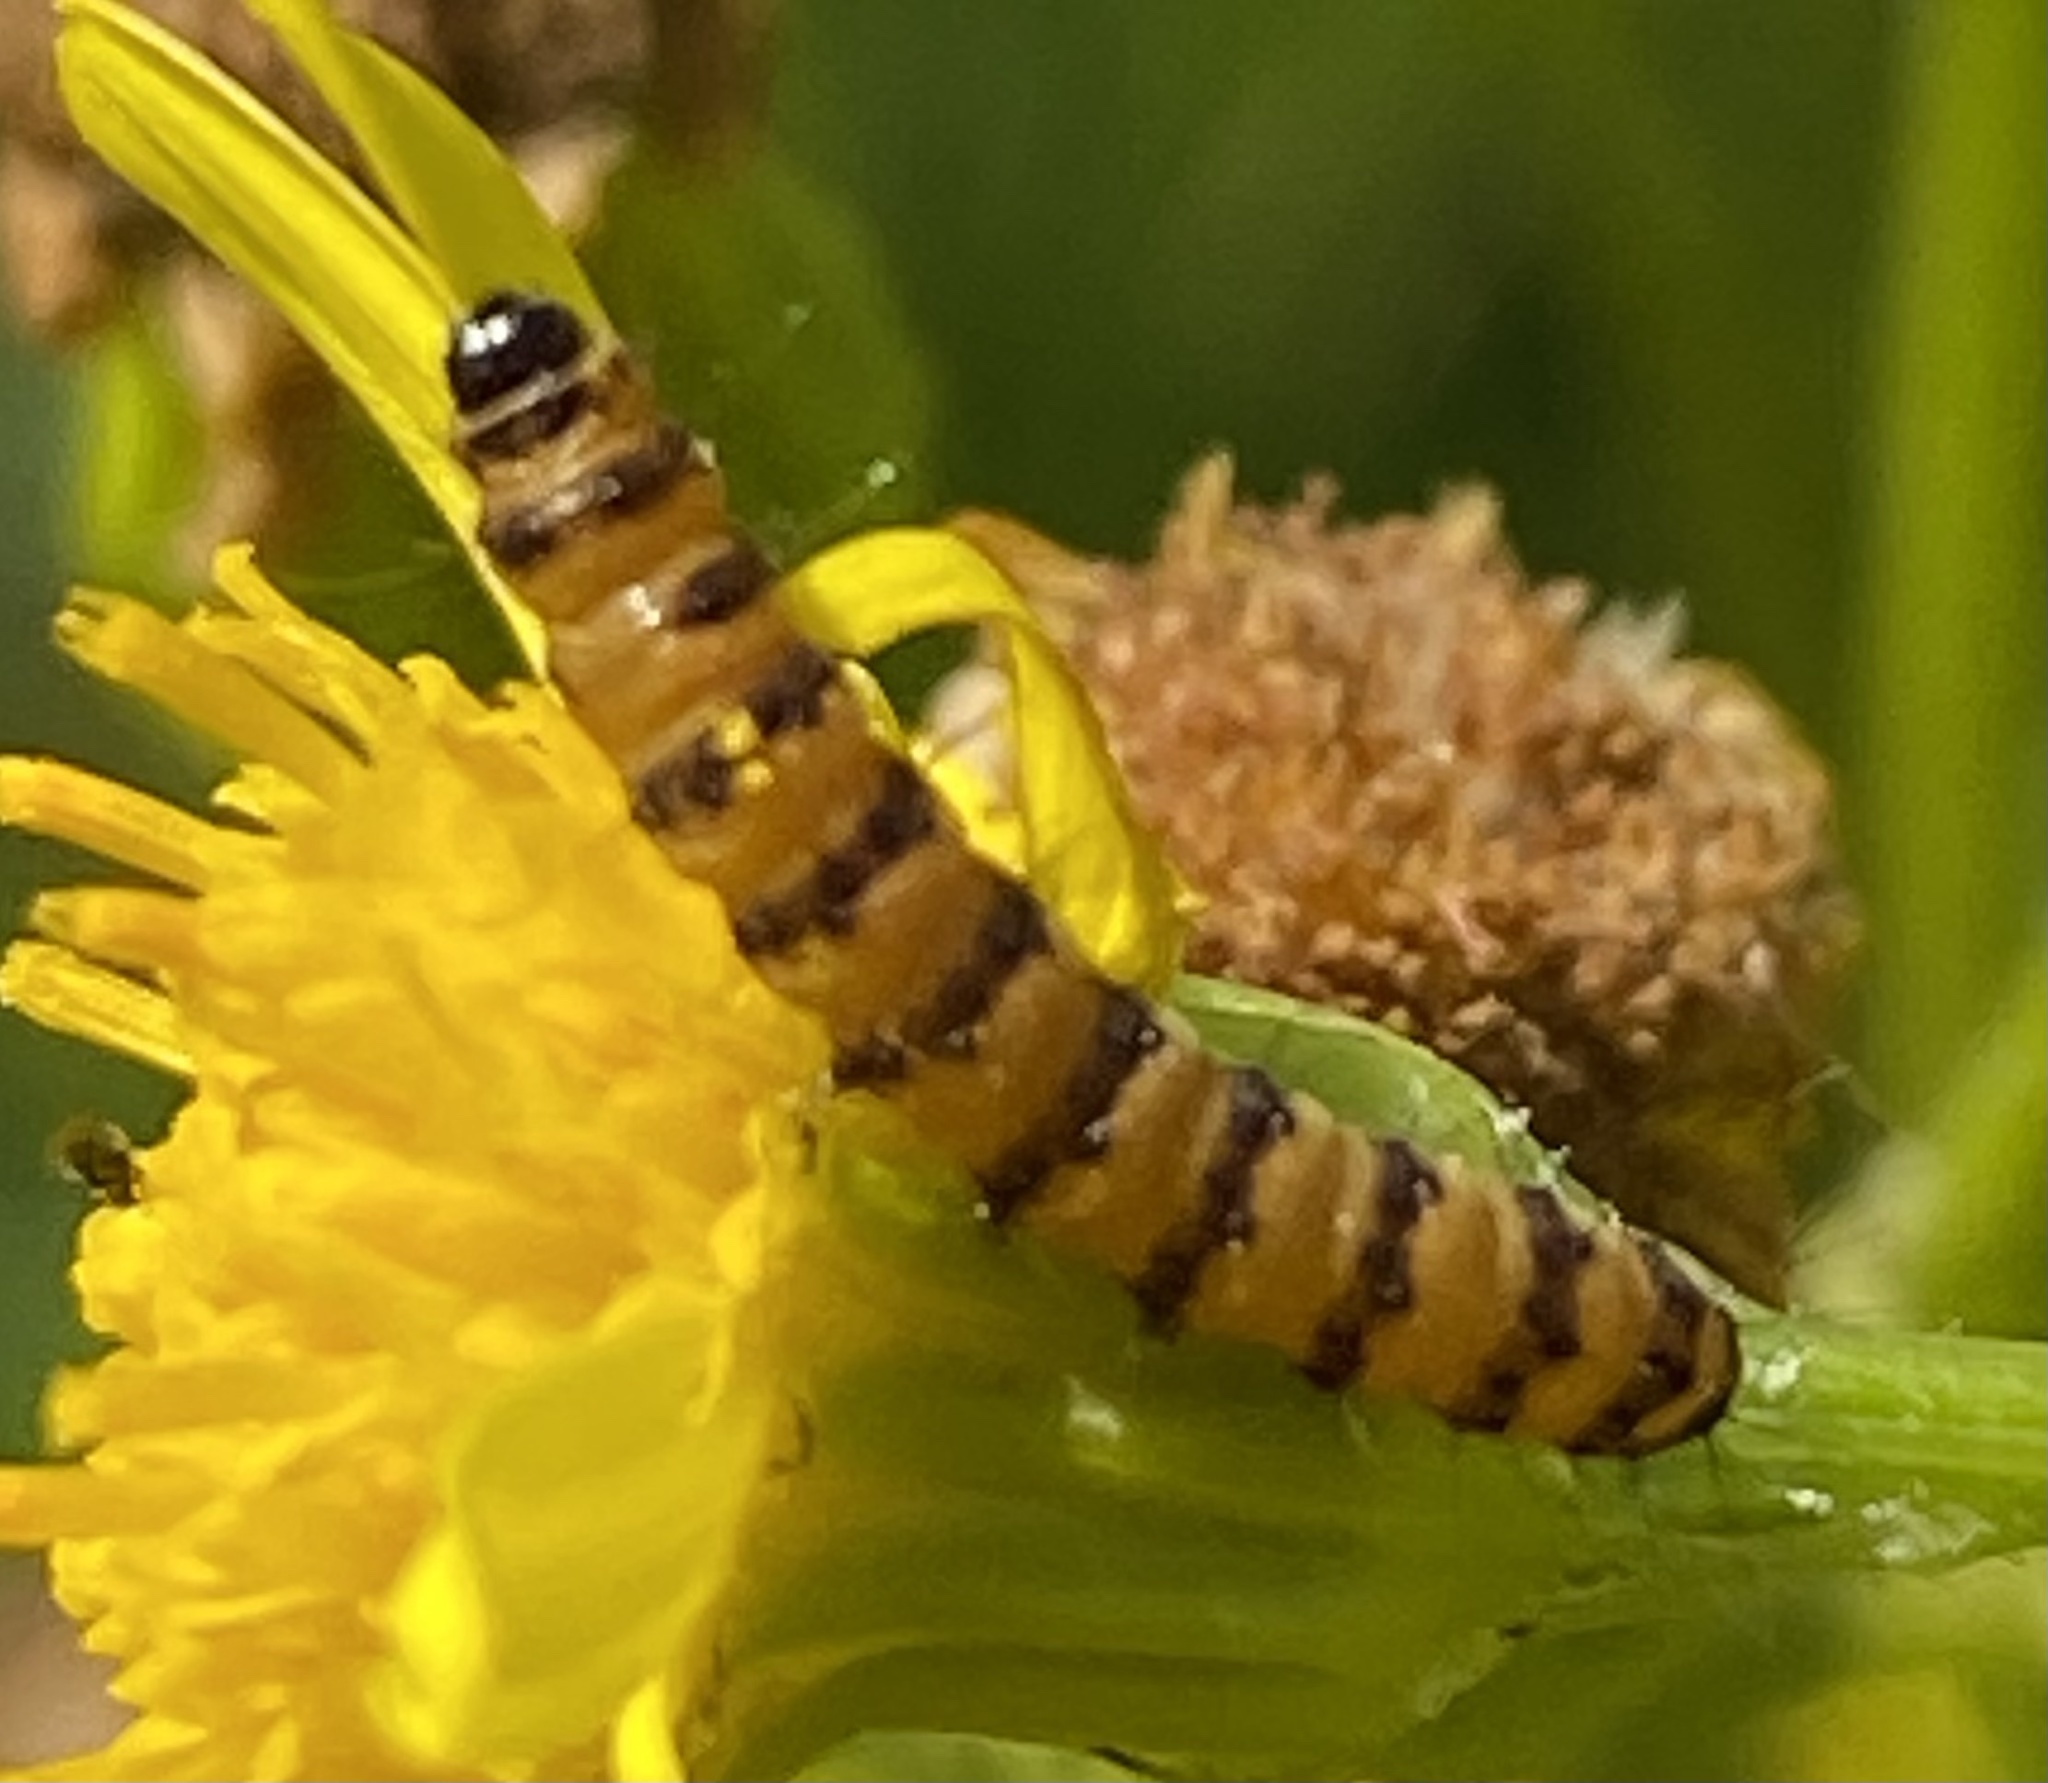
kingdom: Animalia
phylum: Arthropoda
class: Insecta
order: Lepidoptera
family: Erebidae
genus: Tyria
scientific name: Tyria jacobaeae
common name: Cinnabar
